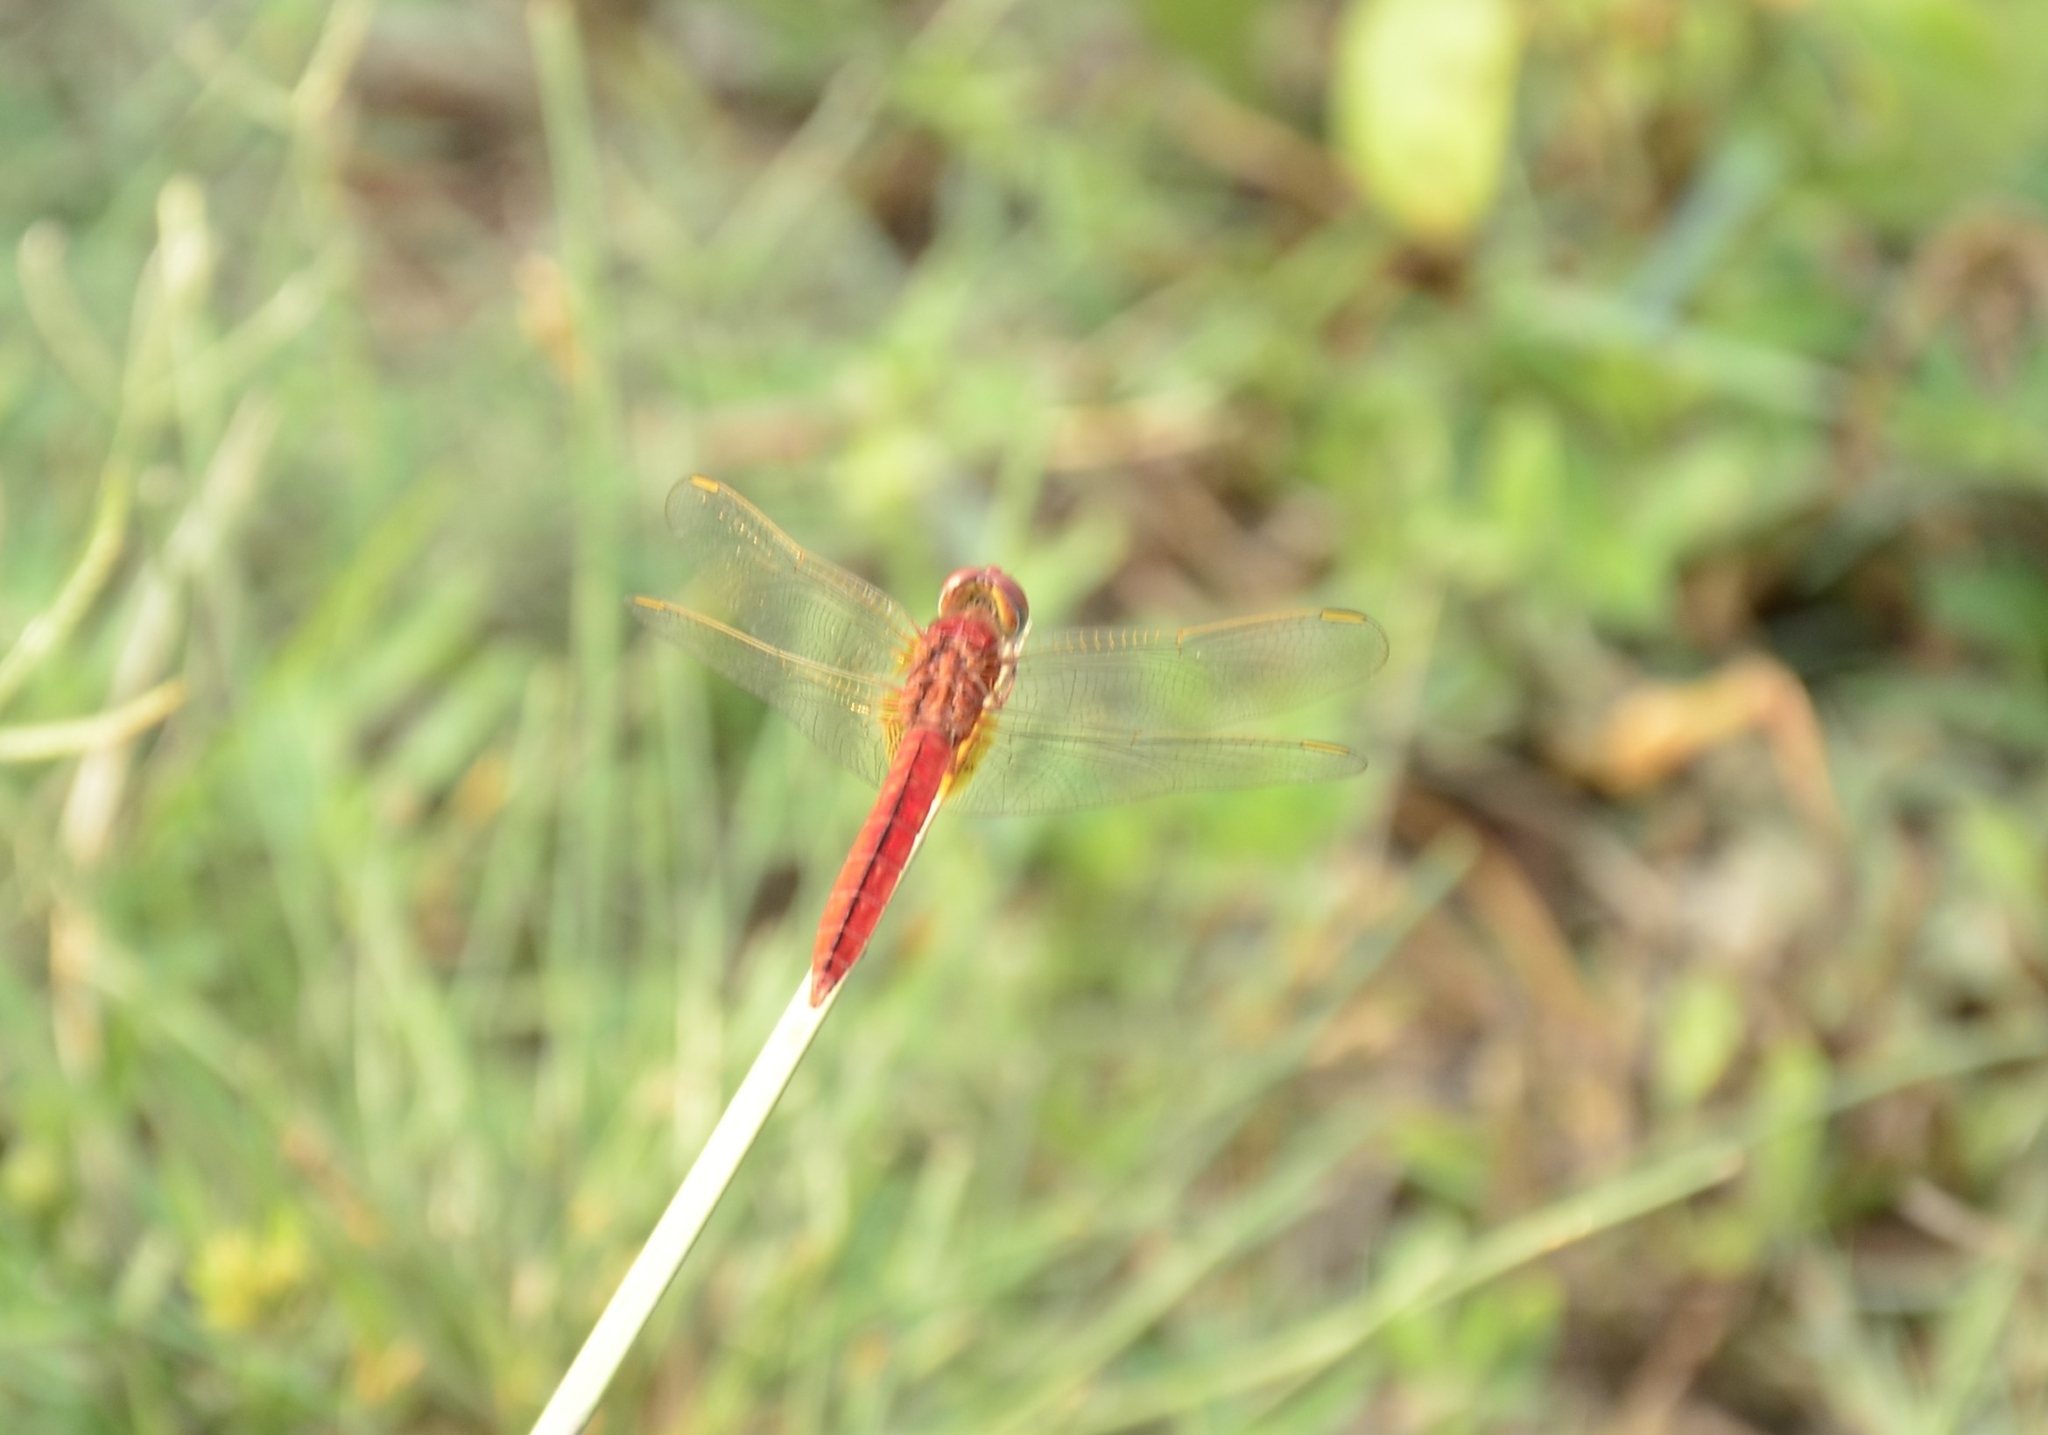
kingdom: Animalia
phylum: Arthropoda
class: Insecta
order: Odonata
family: Libellulidae
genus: Crocothemis
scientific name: Crocothemis servilia
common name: Scarlet skimmer
